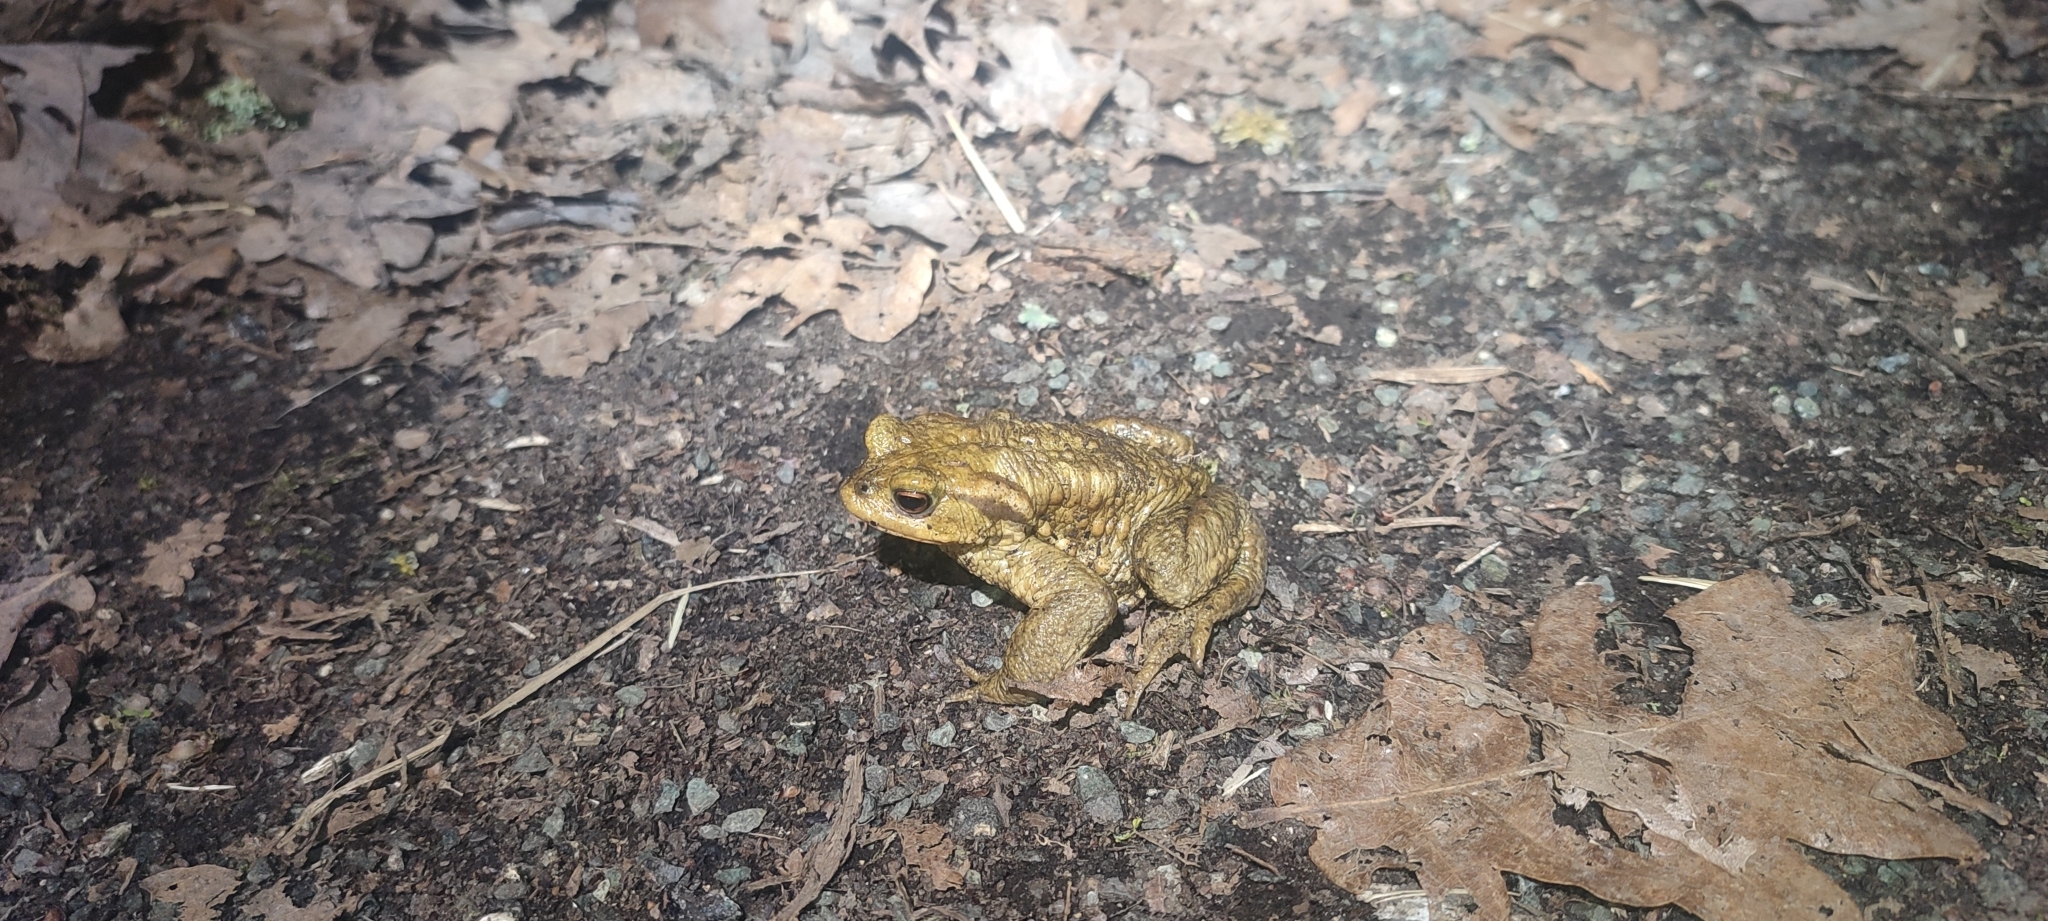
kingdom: Animalia
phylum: Chordata
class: Amphibia
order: Anura
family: Bufonidae
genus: Bufo
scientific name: Bufo spinosus
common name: Western common toad
